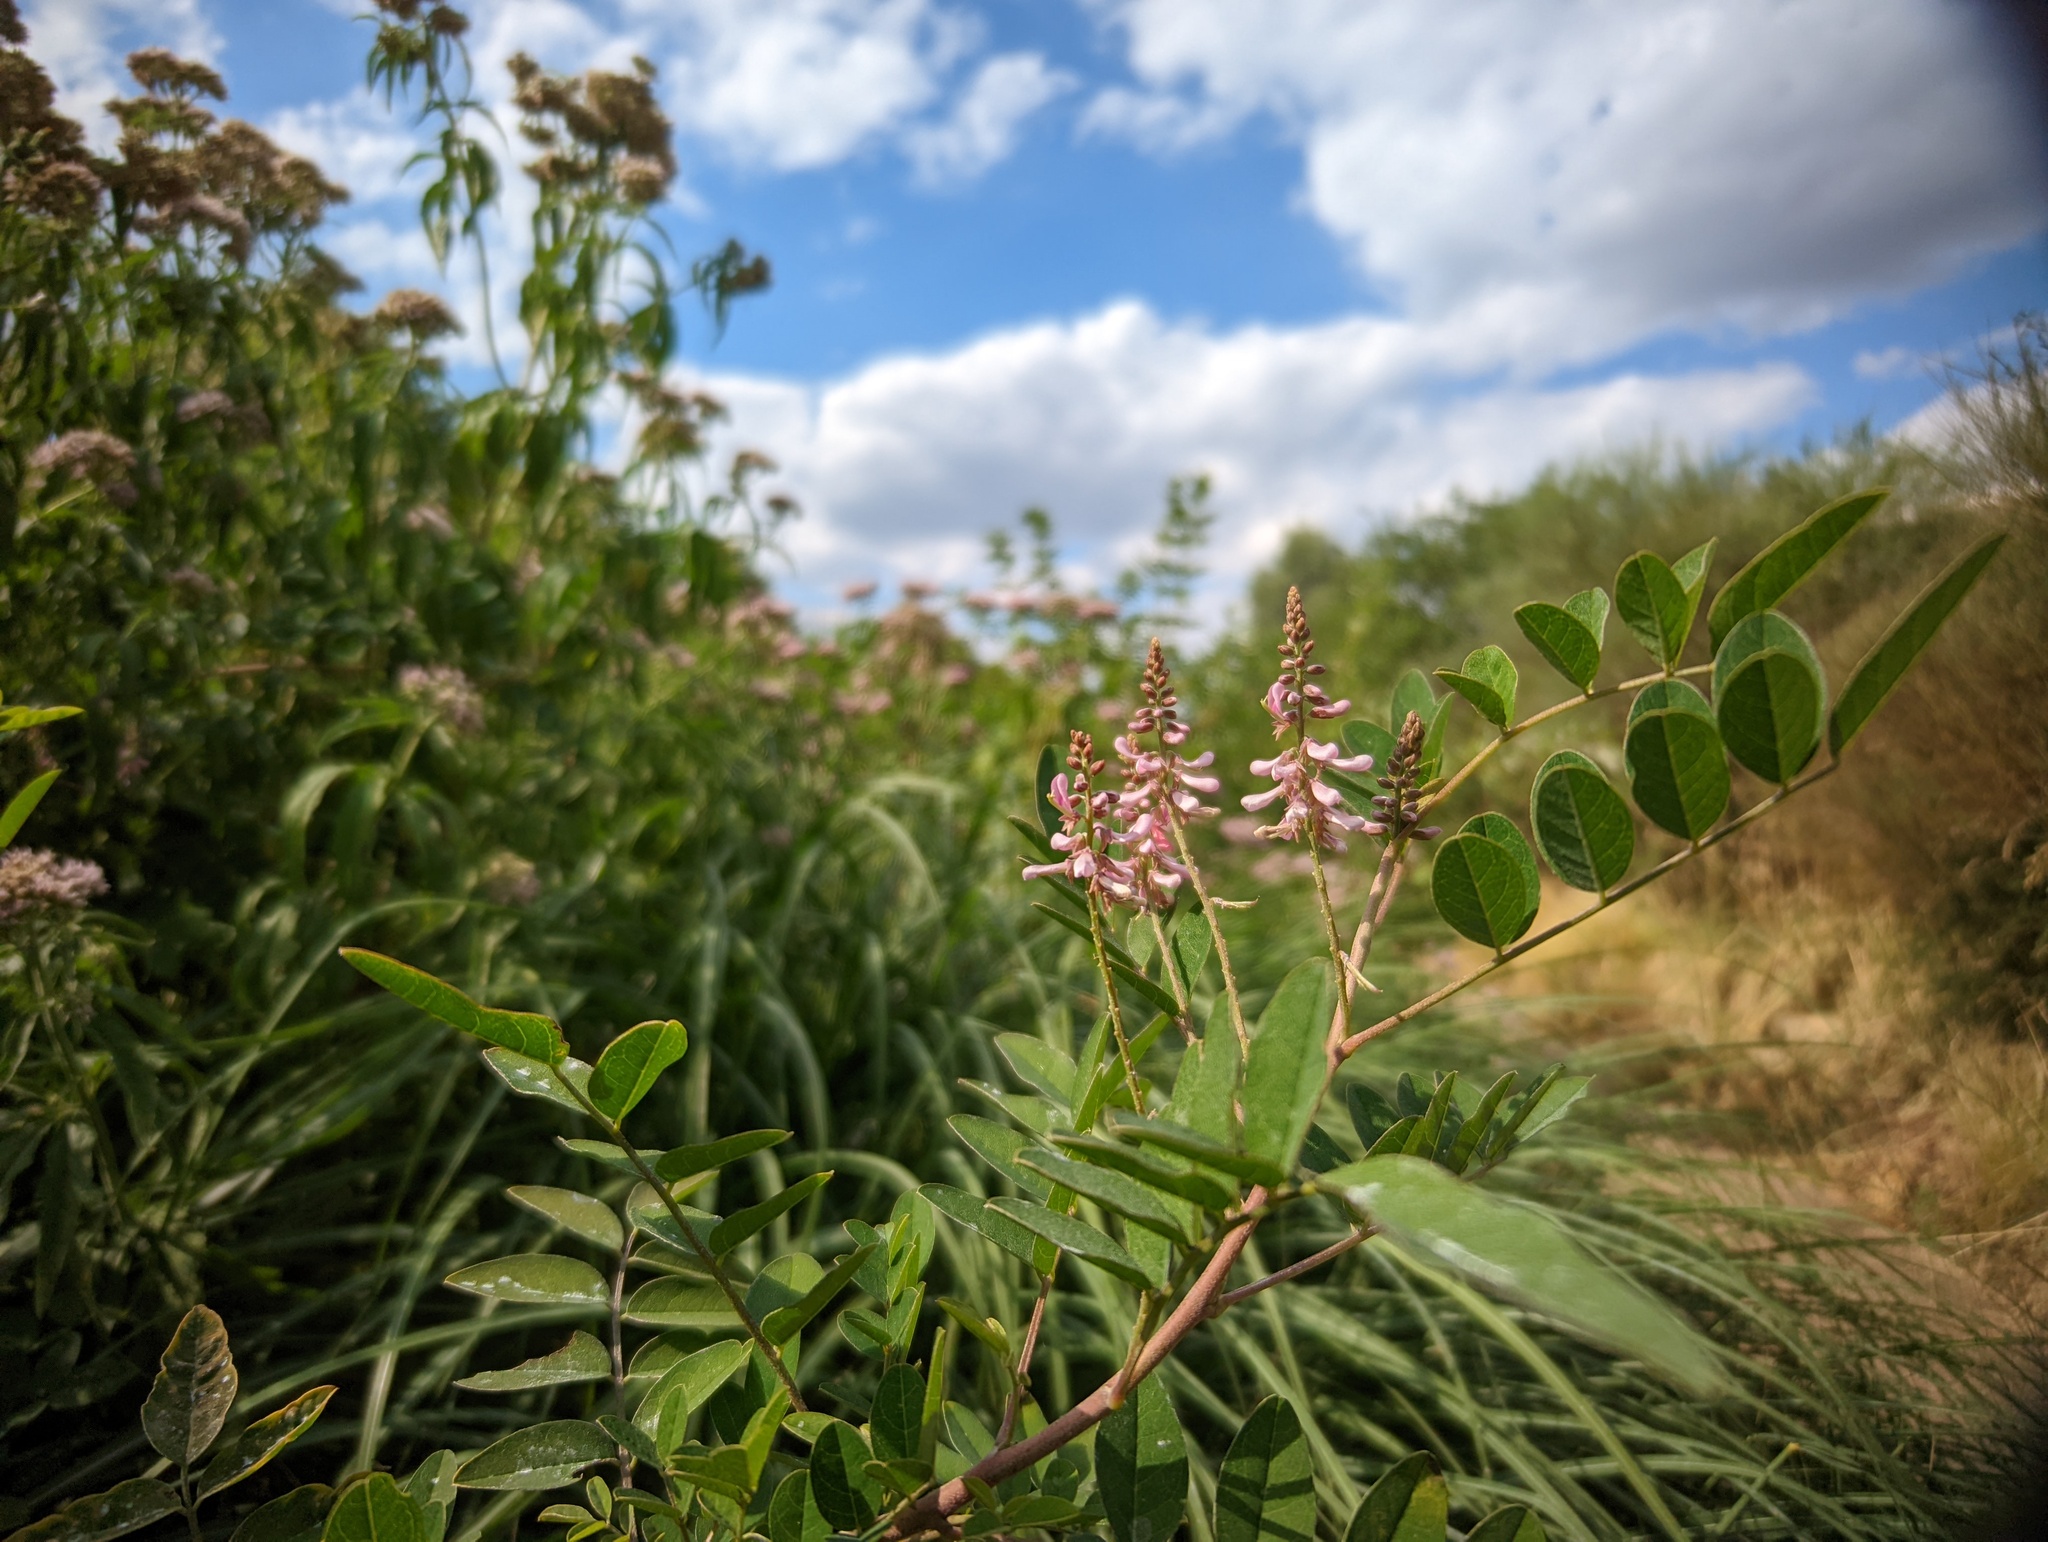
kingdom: Plantae
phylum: Tracheophyta
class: Magnoliopsida
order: Fabales
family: Fabaceae
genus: Onobrychis
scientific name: Onobrychis viciifolia
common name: Sainfoin
